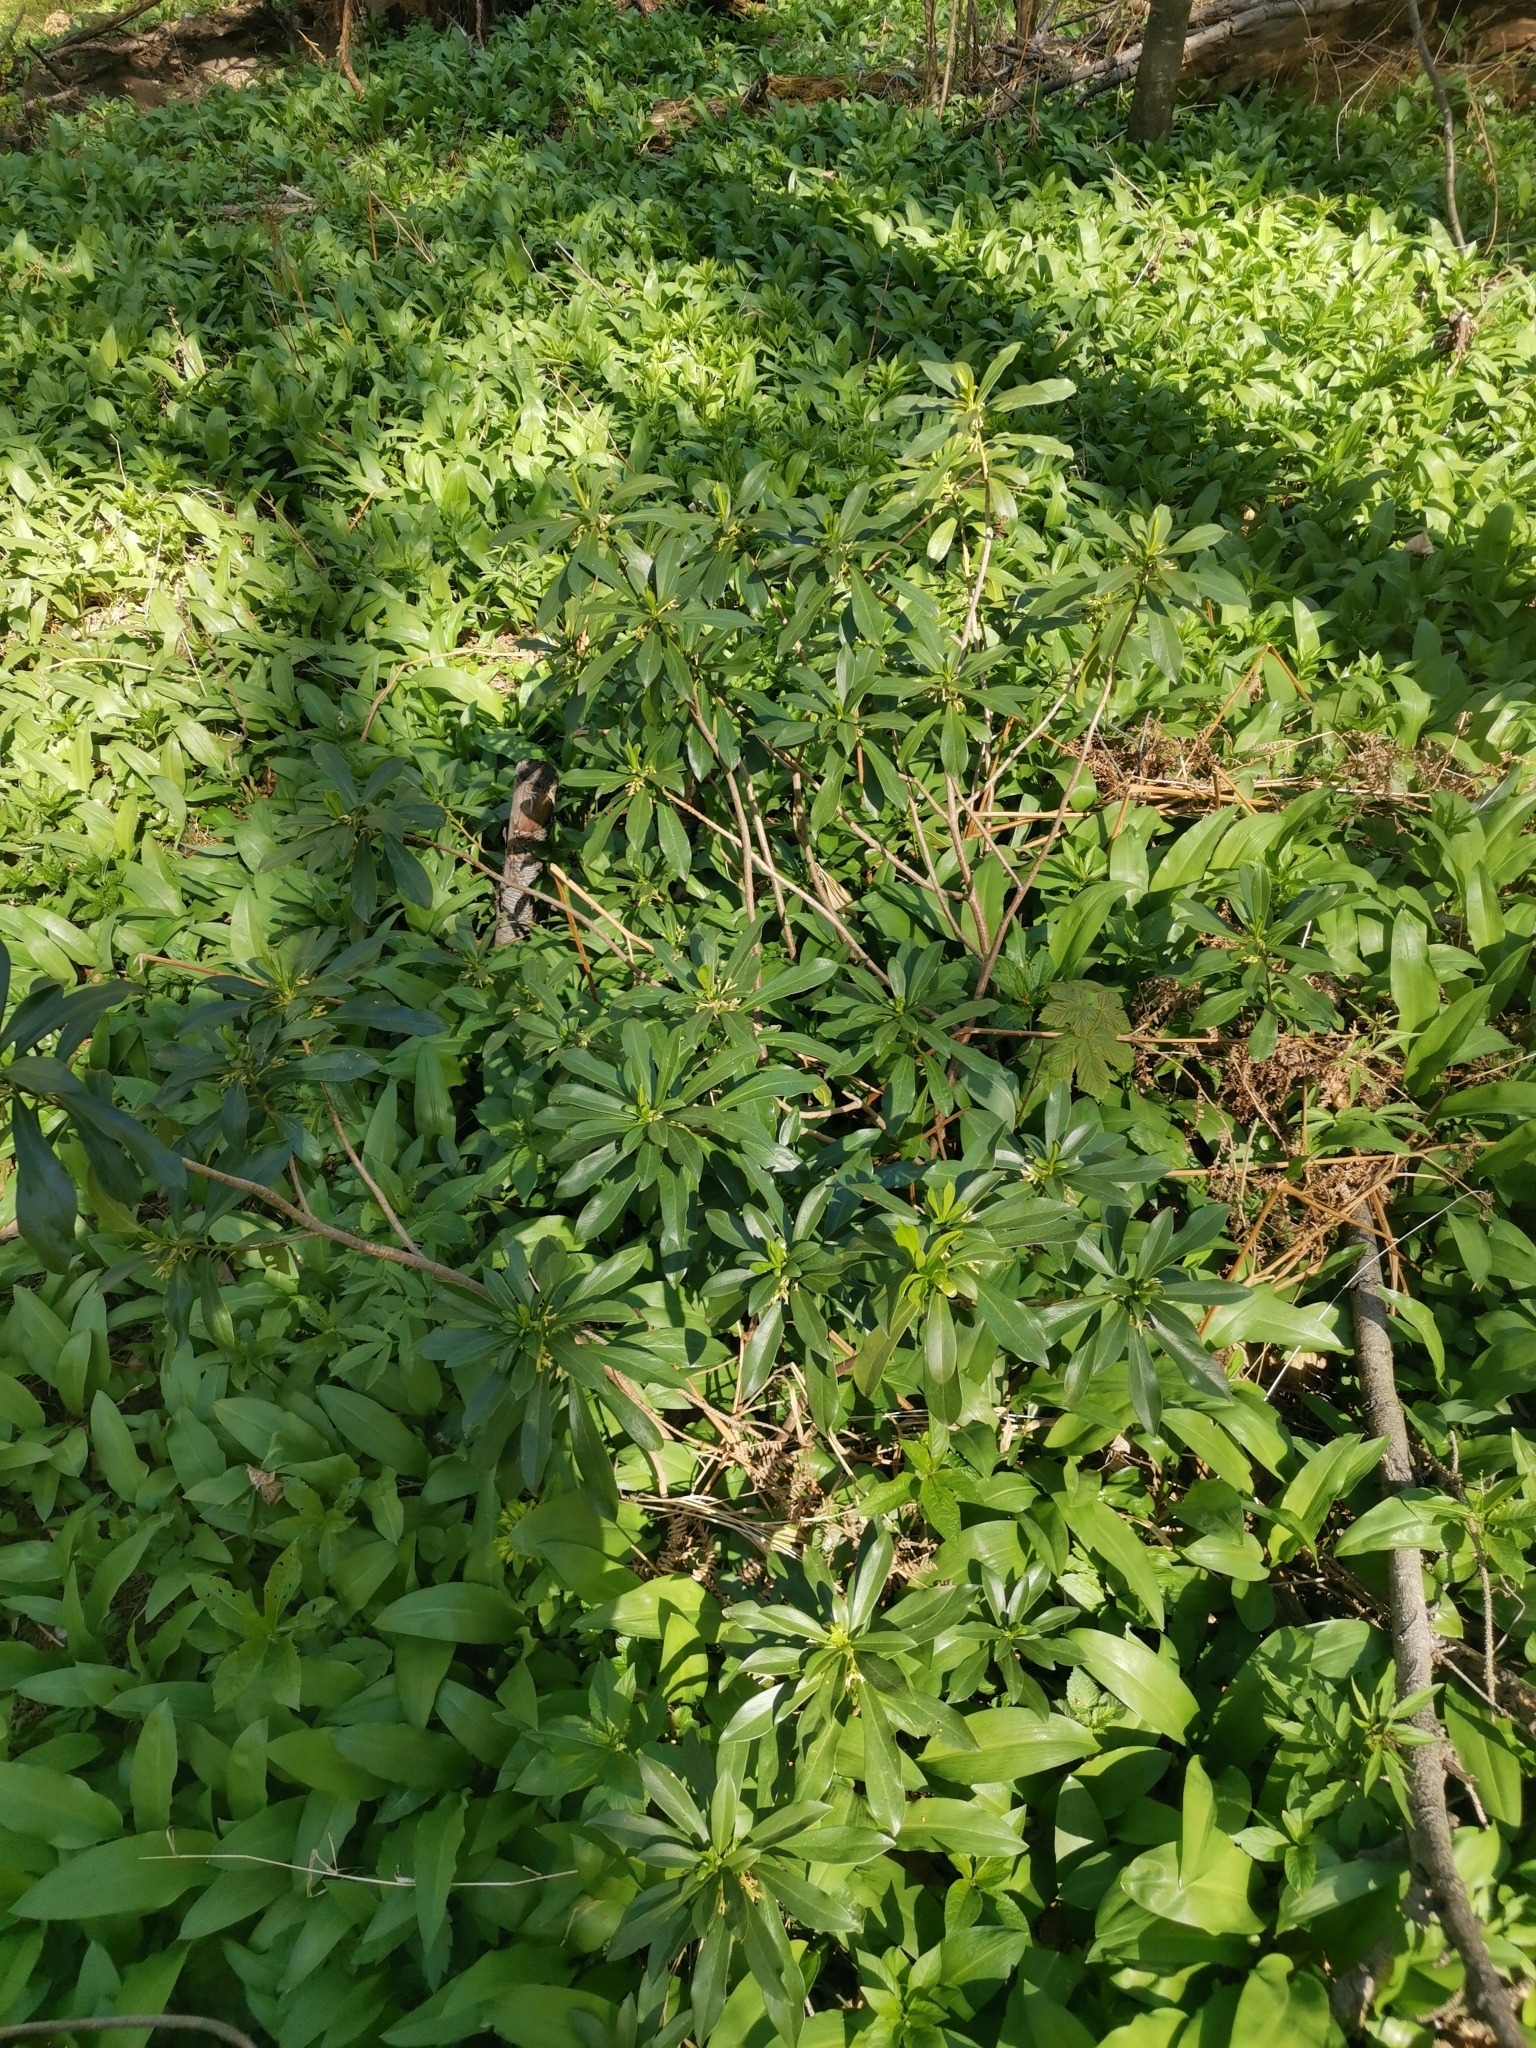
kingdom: Plantae
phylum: Tracheophyta
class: Magnoliopsida
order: Malvales
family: Thymelaeaceae
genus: Daphne
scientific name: Daphne laureola
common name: Spurge-laurel
